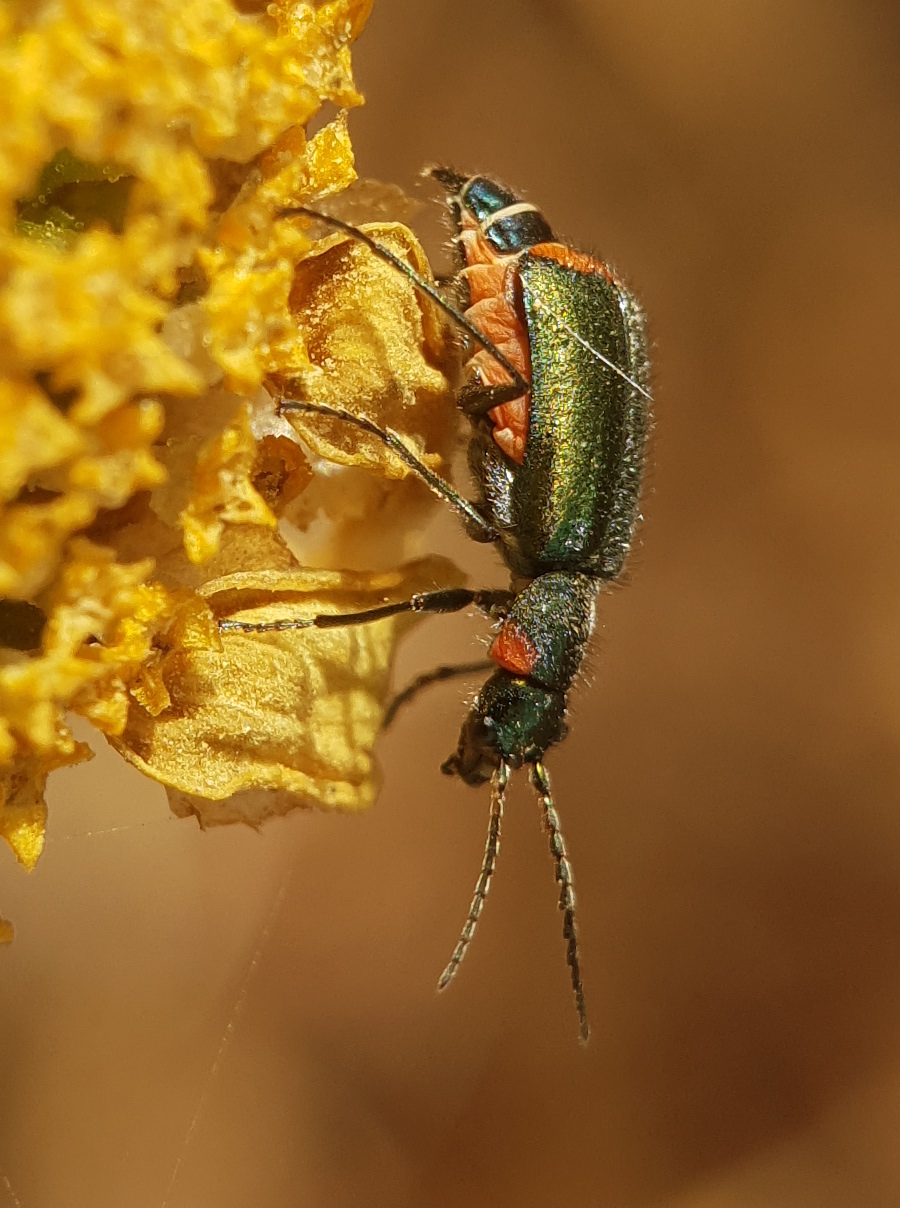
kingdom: Animalia
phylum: Arthropoda
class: Insecta
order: Coleoptera
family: Malachiidae
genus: Clanoptilus
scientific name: Clanoptilus assimilis
